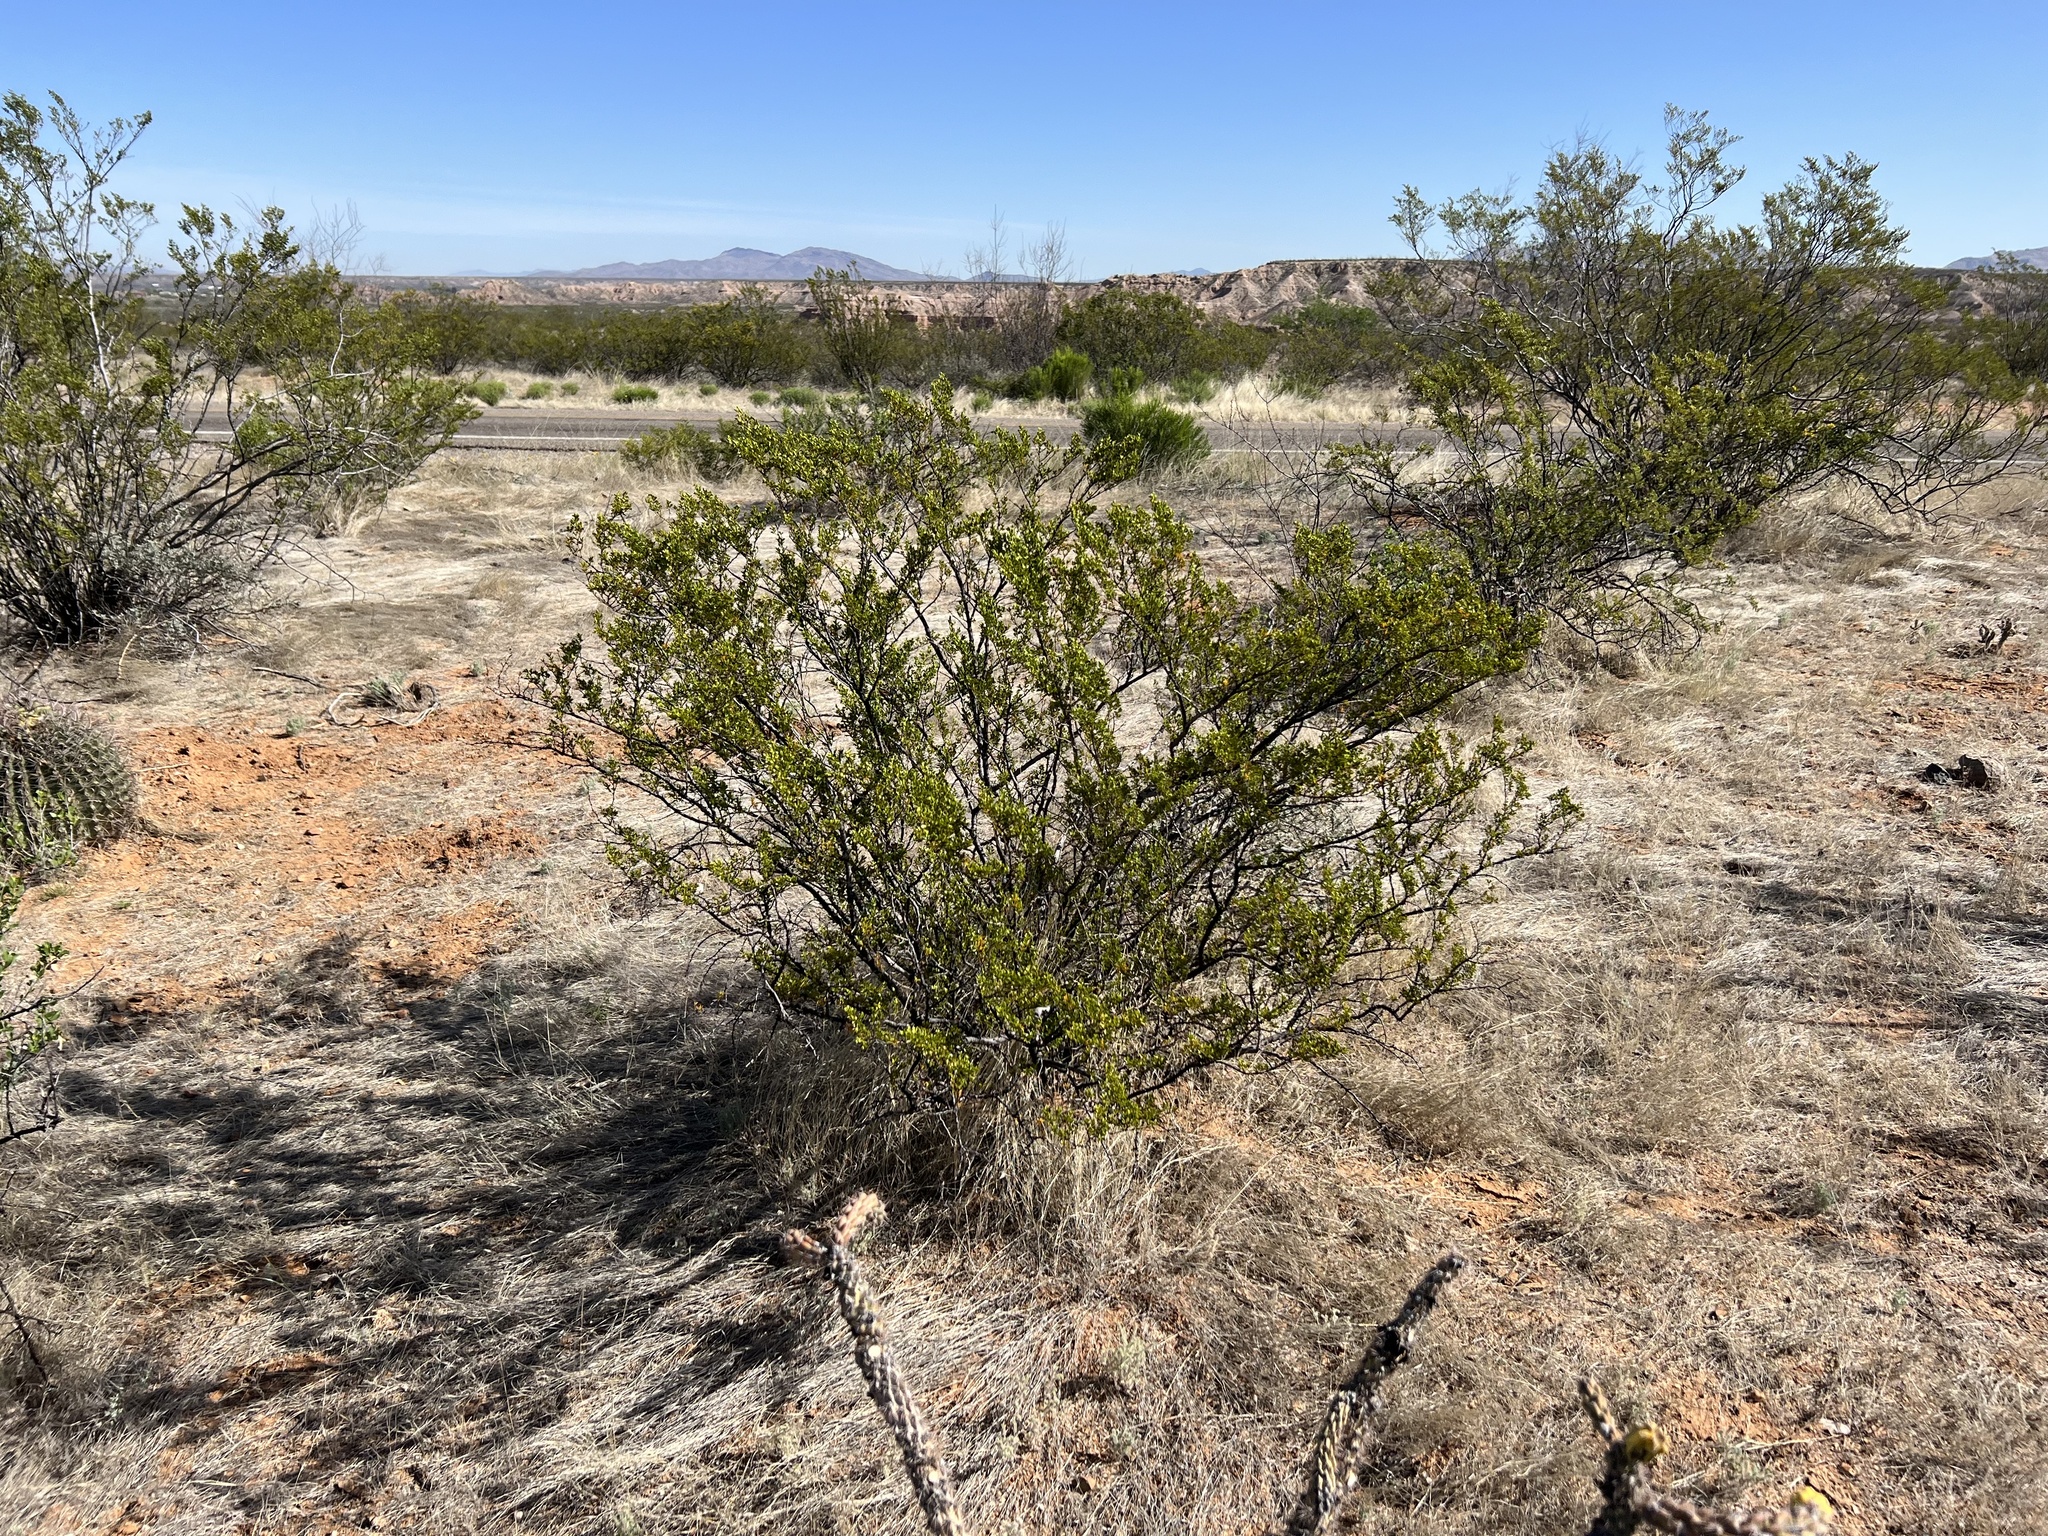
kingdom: Plantae
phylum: Tracheophyta
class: Magnoliopsida
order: Zygophyllales
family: Zygophyllaceae
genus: Larrea
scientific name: Larrea tridentata
